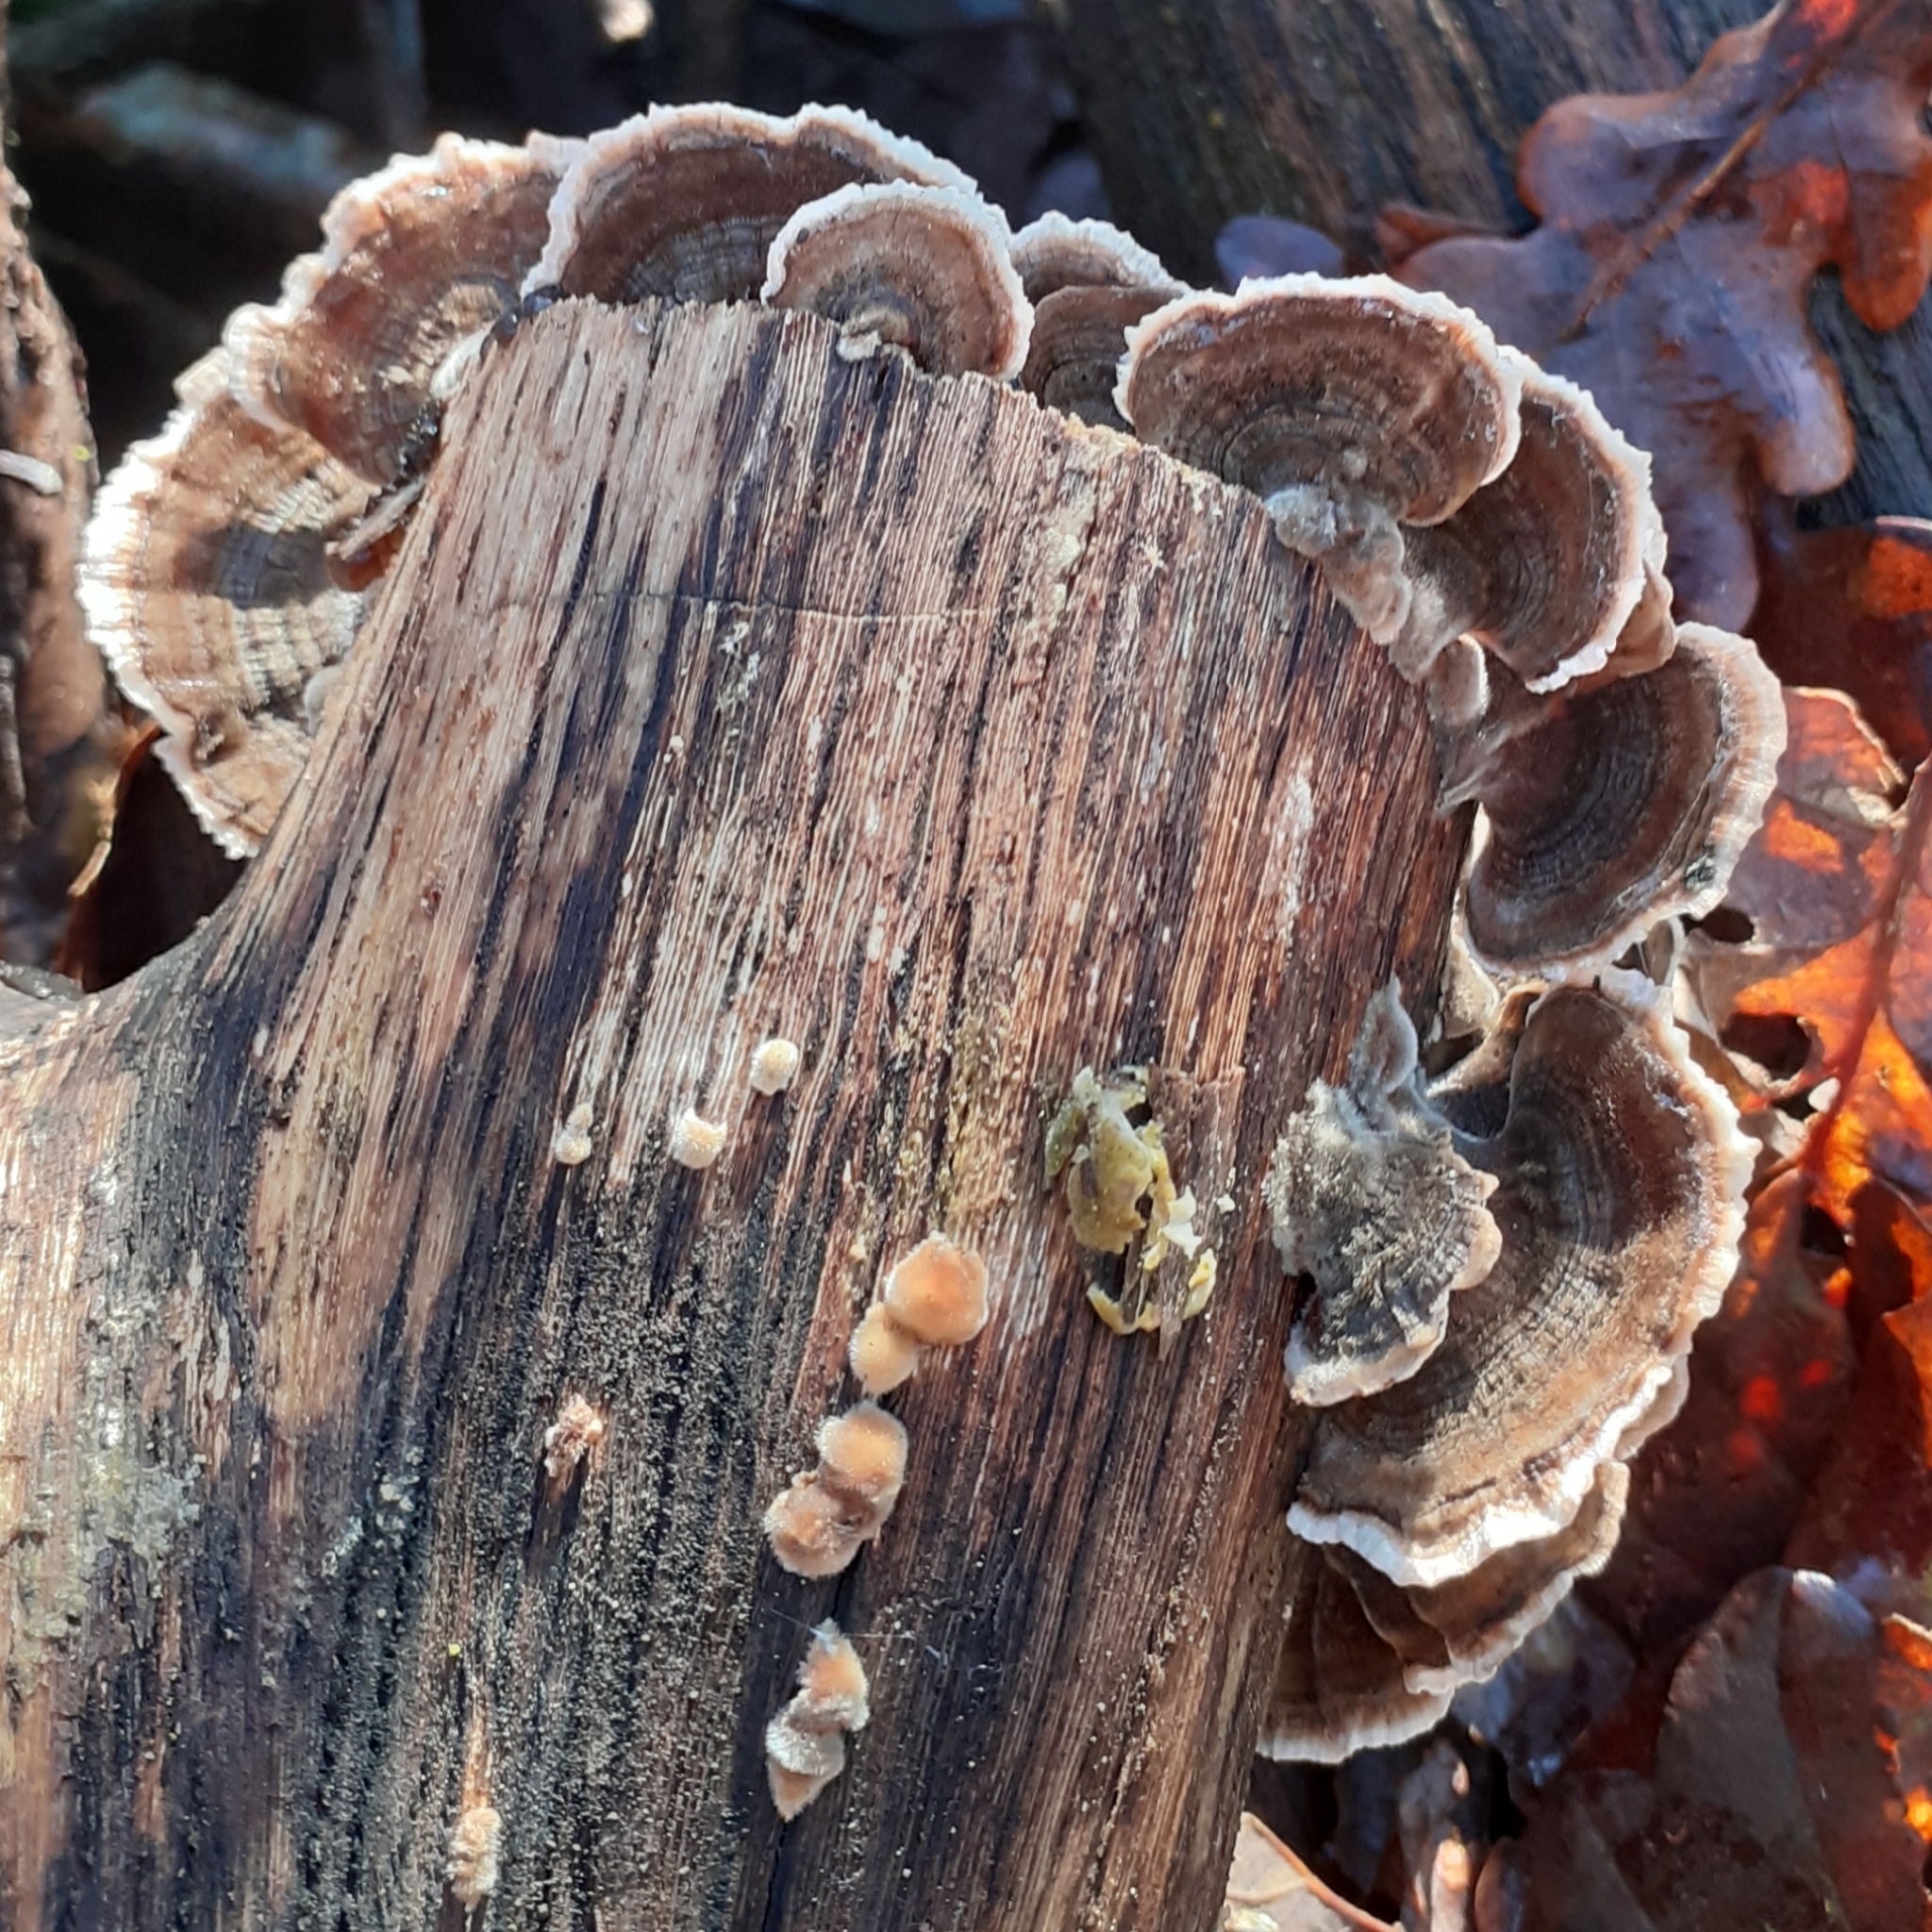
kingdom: Fungi
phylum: Basidiomycota
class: Agaricomycetes
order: Polyporales
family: Polyporaceae
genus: Trametes
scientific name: Trametes versicolor
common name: Turkeytail
